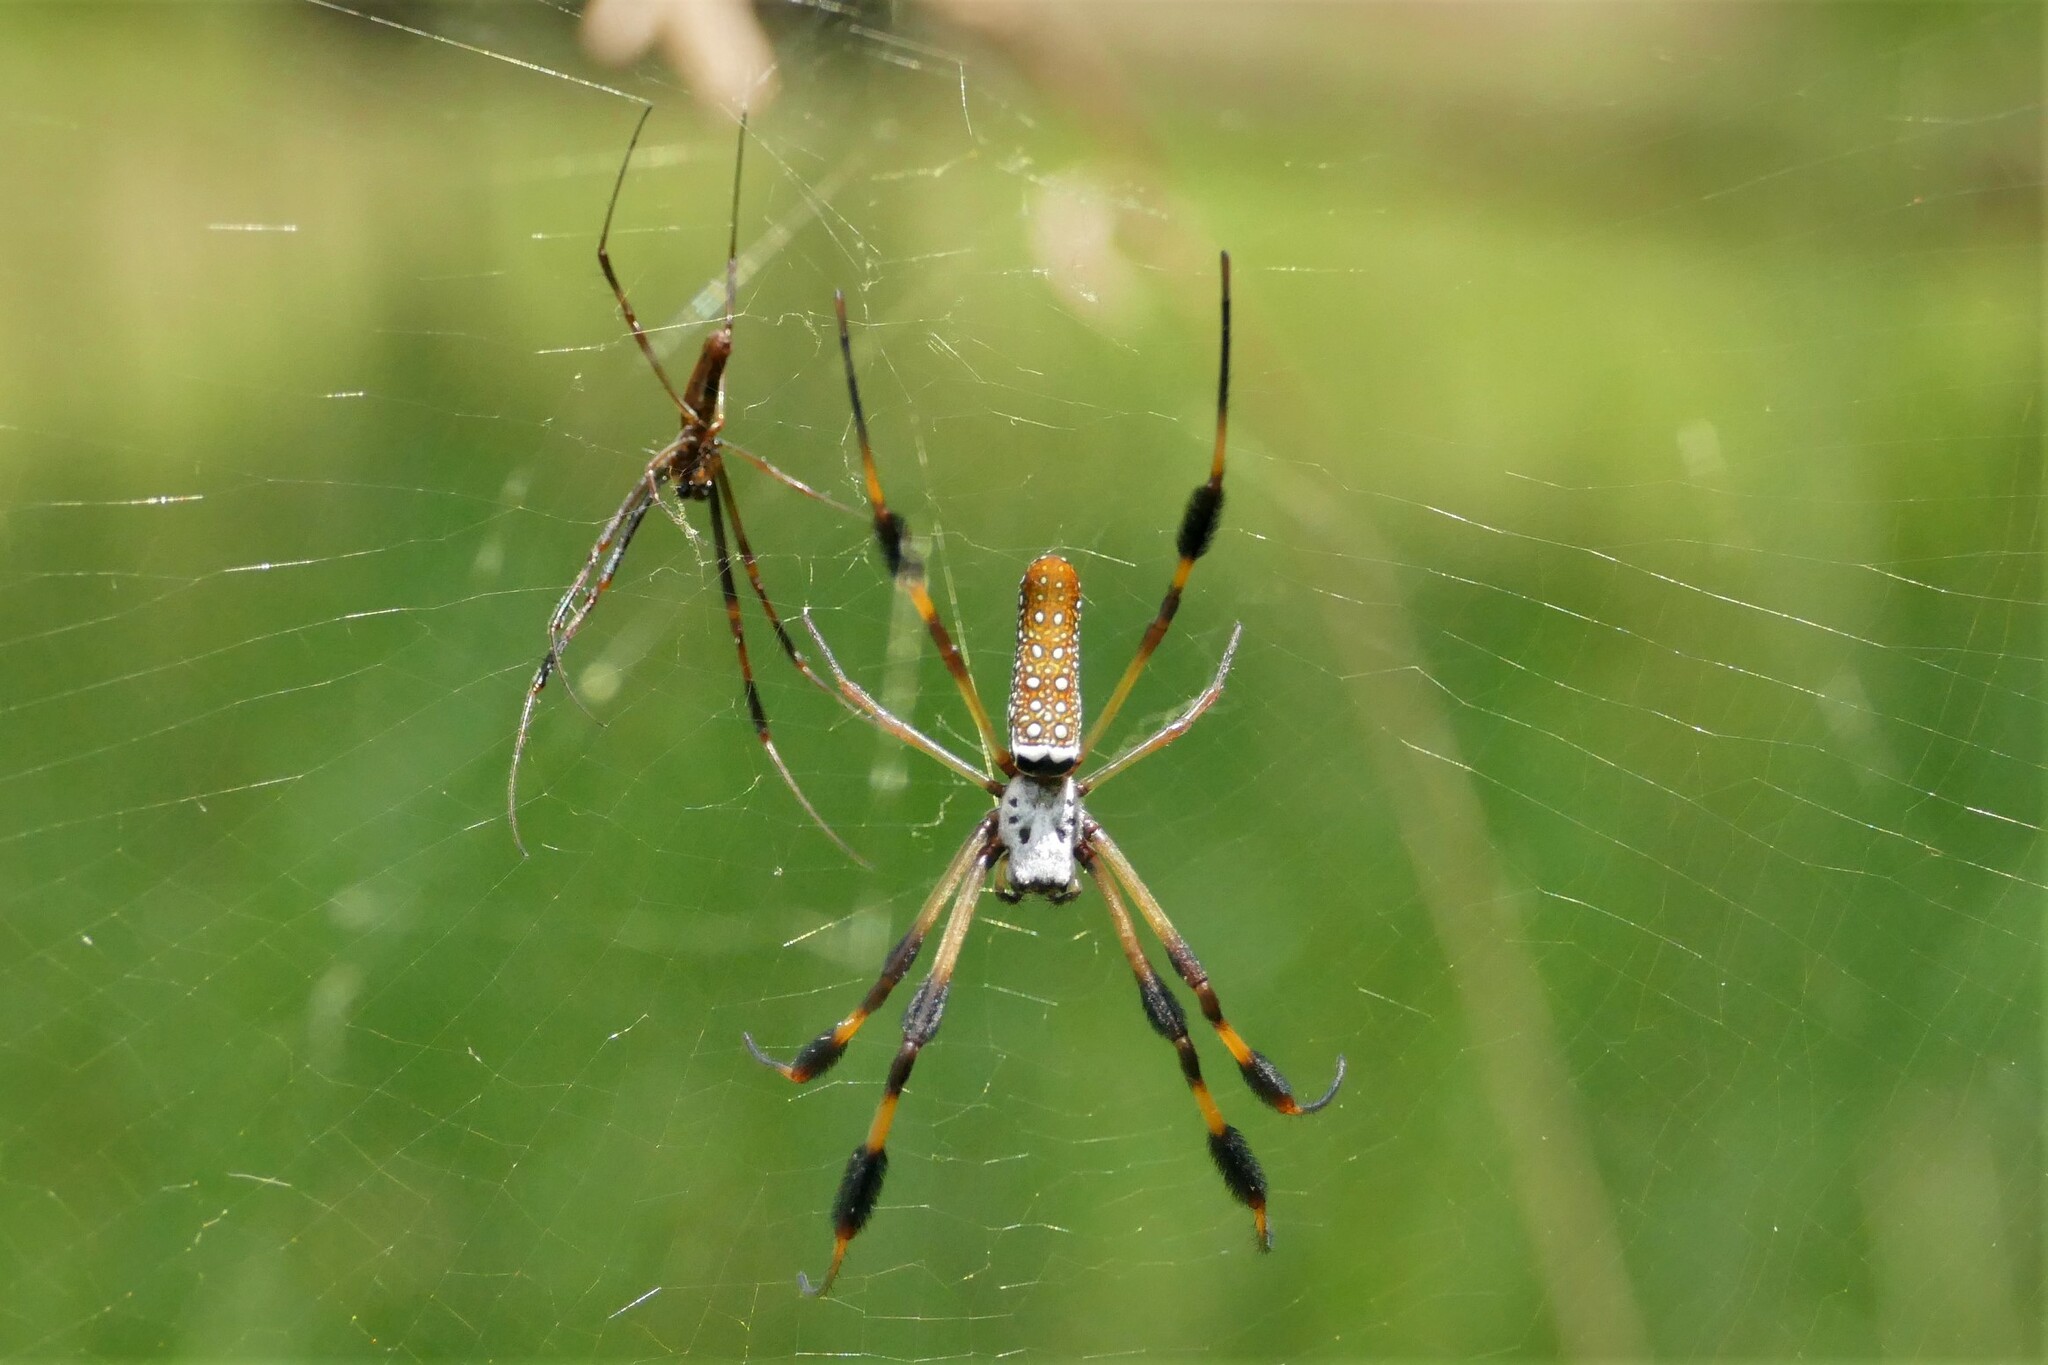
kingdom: Animalia
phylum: Arthropoda
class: Arachnida
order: Araneae
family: Araneidae
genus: Trichonephila
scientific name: Trichonephila clavipes
